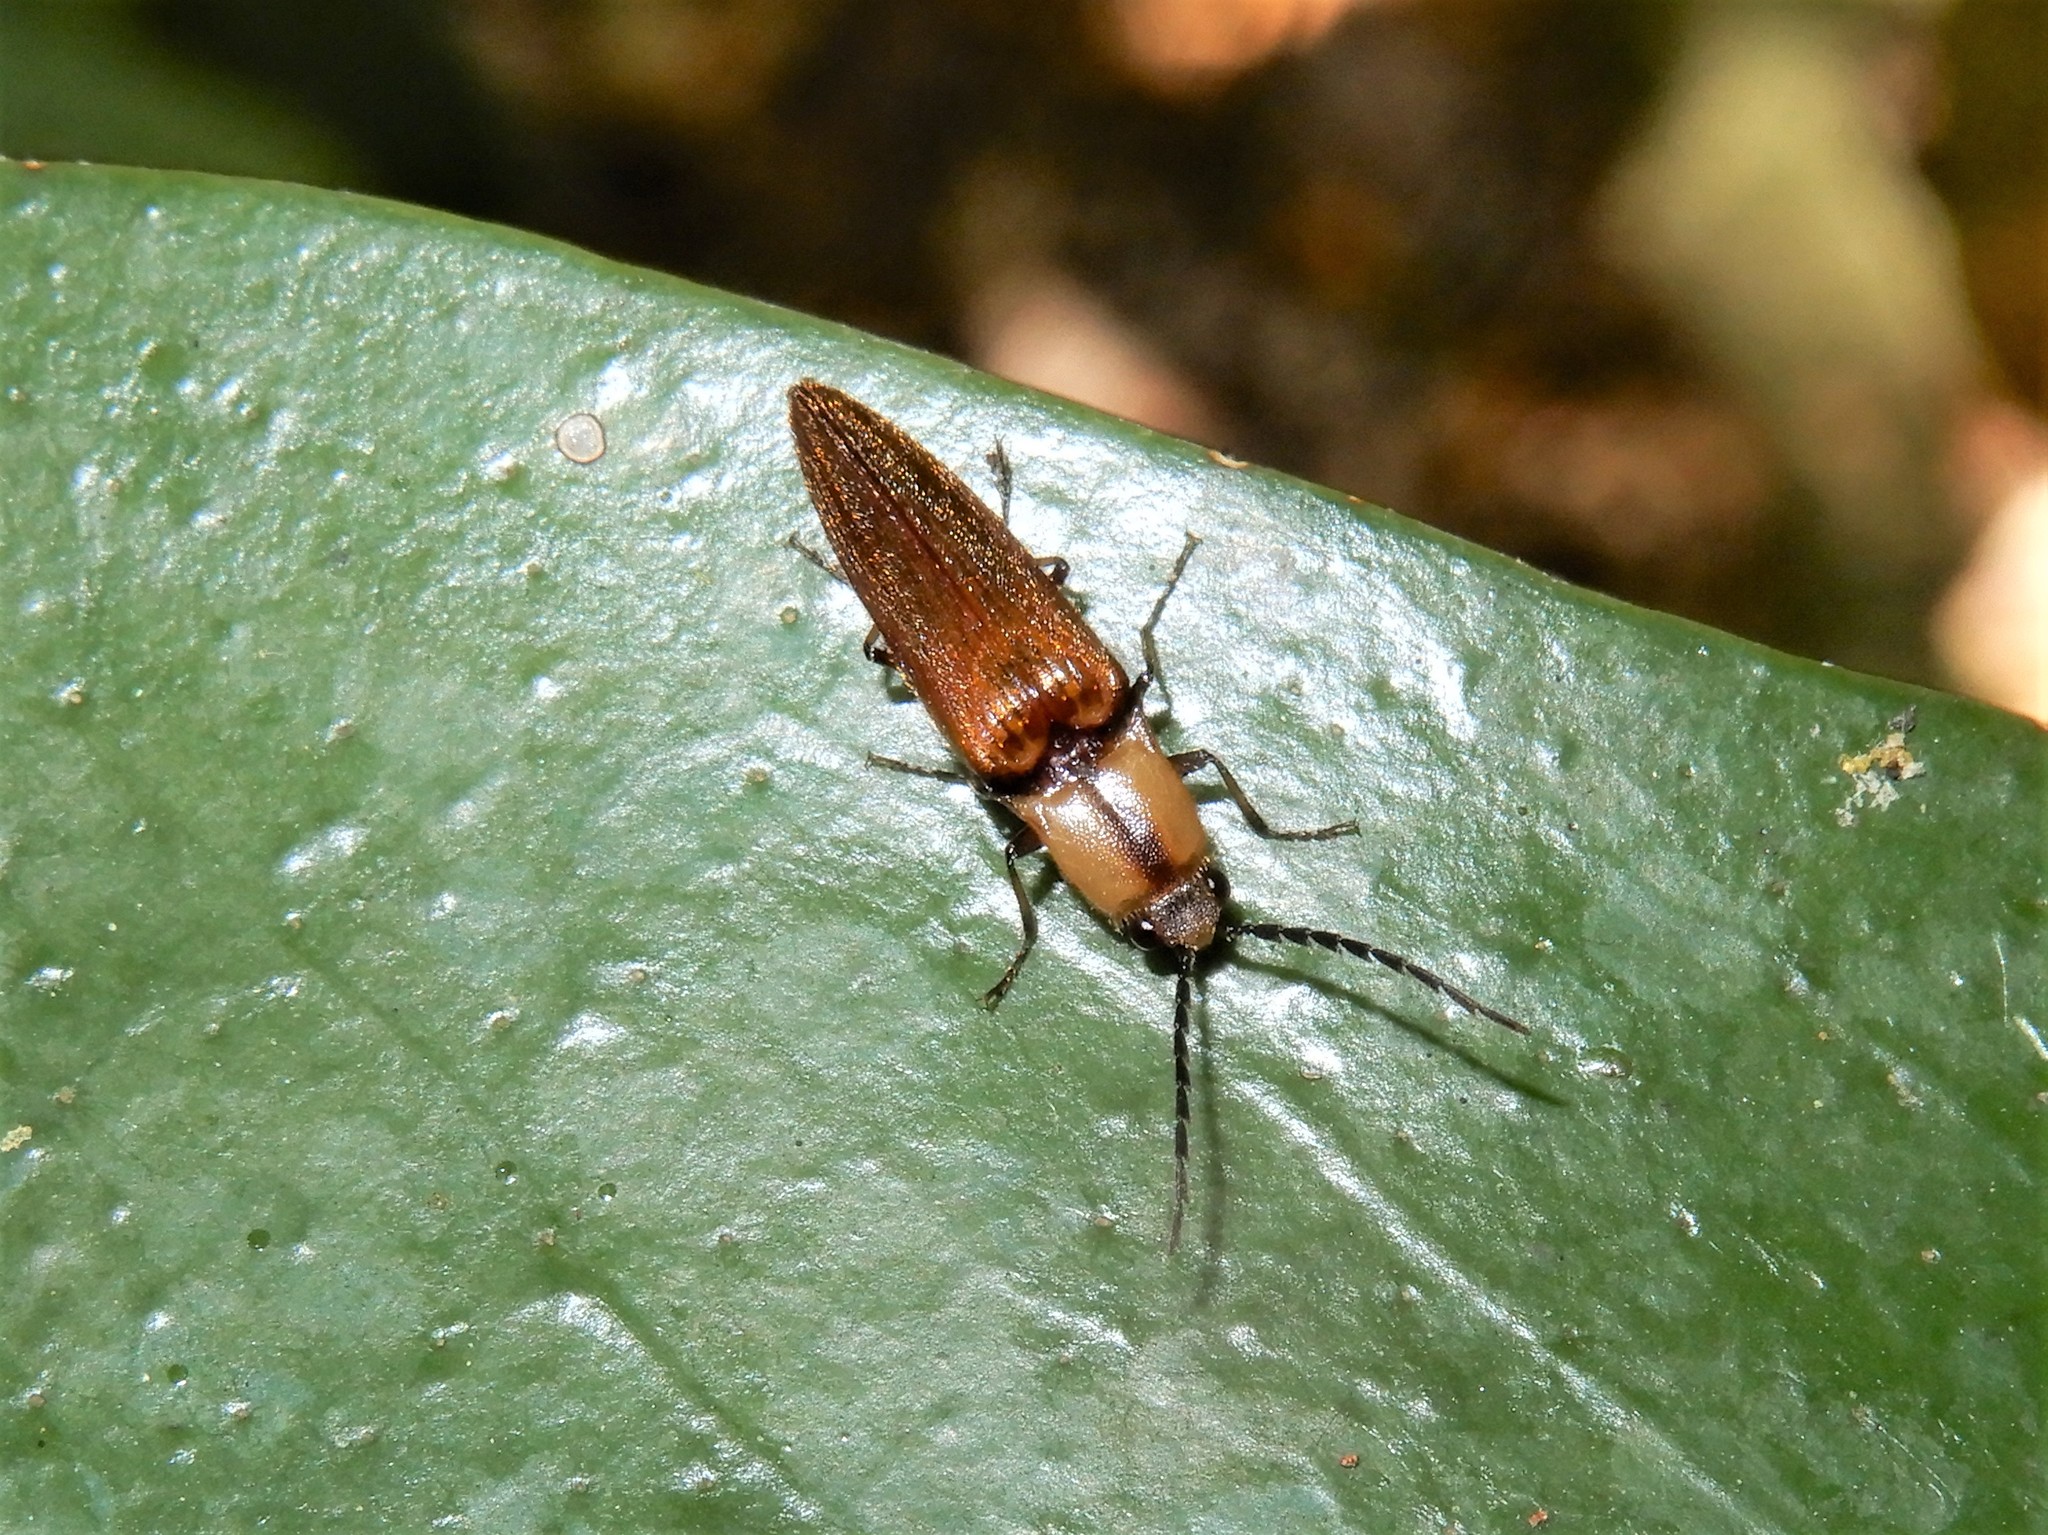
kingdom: Animalia
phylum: Arthropoda
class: Insecta
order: Coleoptera
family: Elateridae
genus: Sphaenelater
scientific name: Sphaenelater
